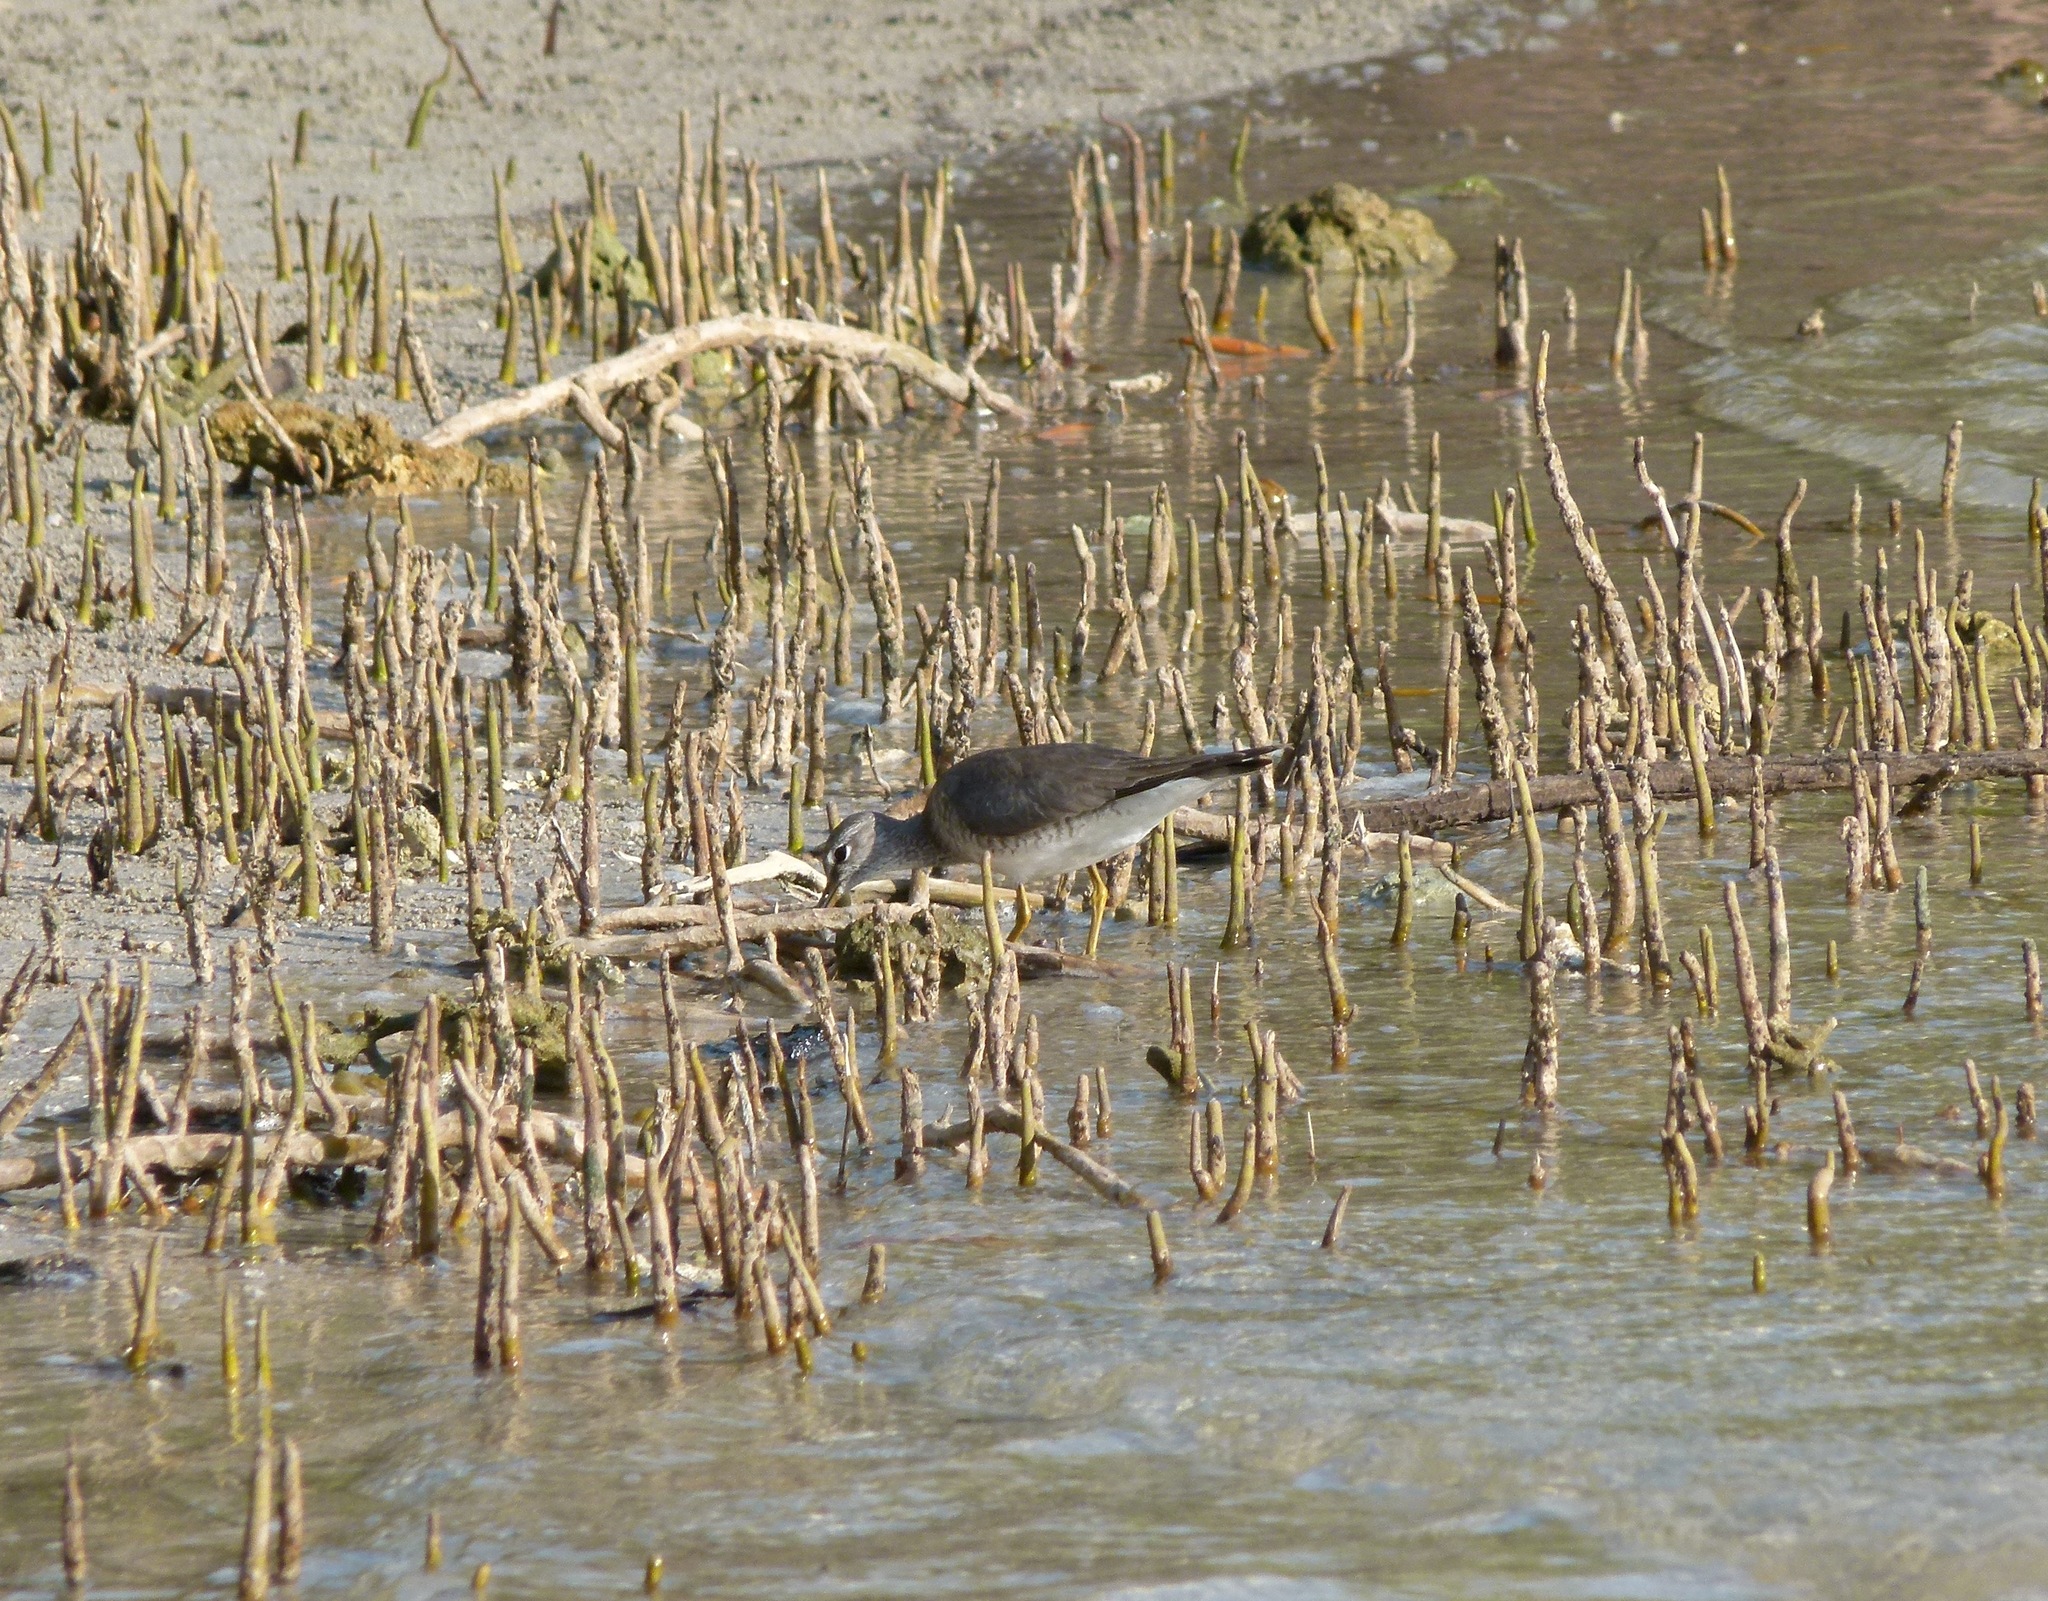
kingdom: Animalia
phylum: Chordata
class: Aves
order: Charadriiformes
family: Scolopacidae
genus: Tringa
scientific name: Tringa brevipes
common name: Grey-tailed tattler
